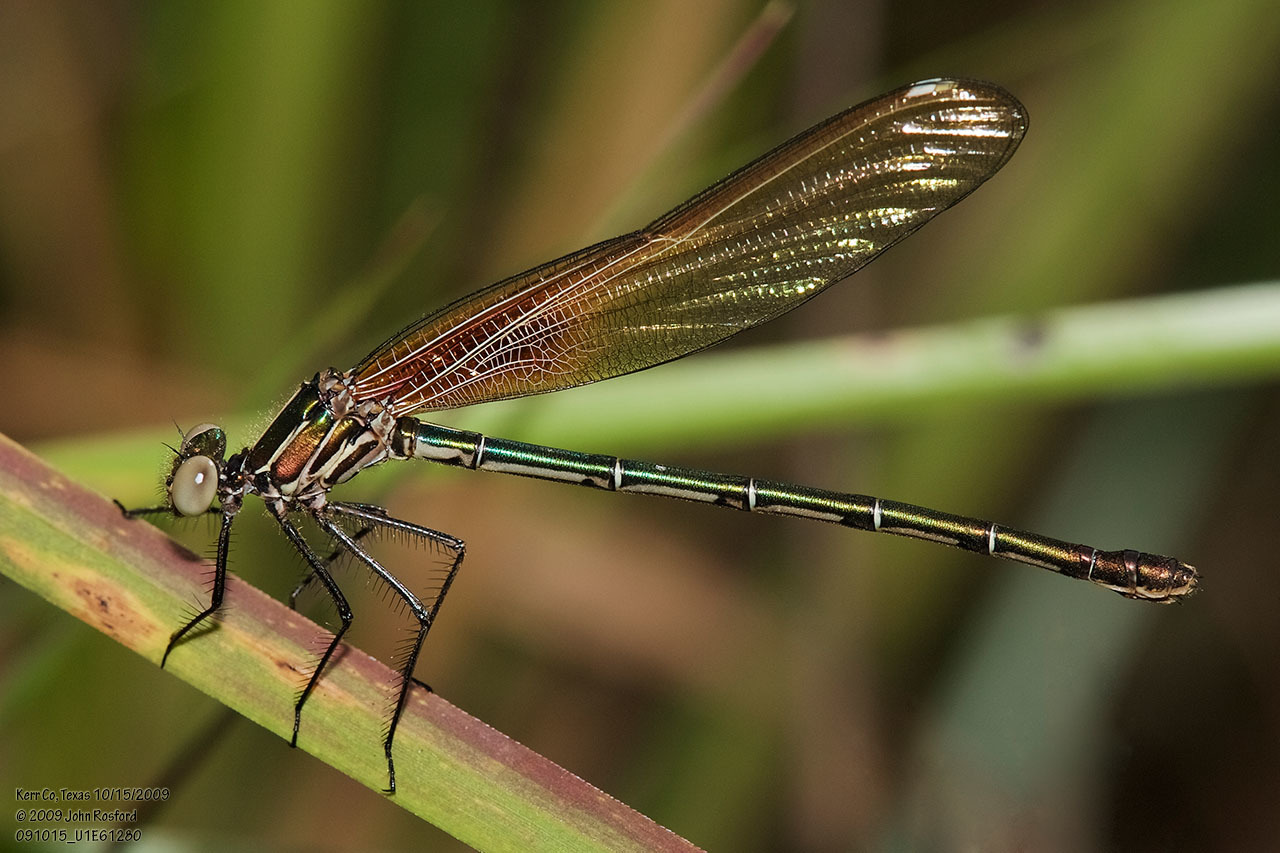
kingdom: Animalia
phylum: Arthropoda
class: Insecta
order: Odonata
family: Calopterygidae
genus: Hetaerina
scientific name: Hetaerina americana
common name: American rubyspot
